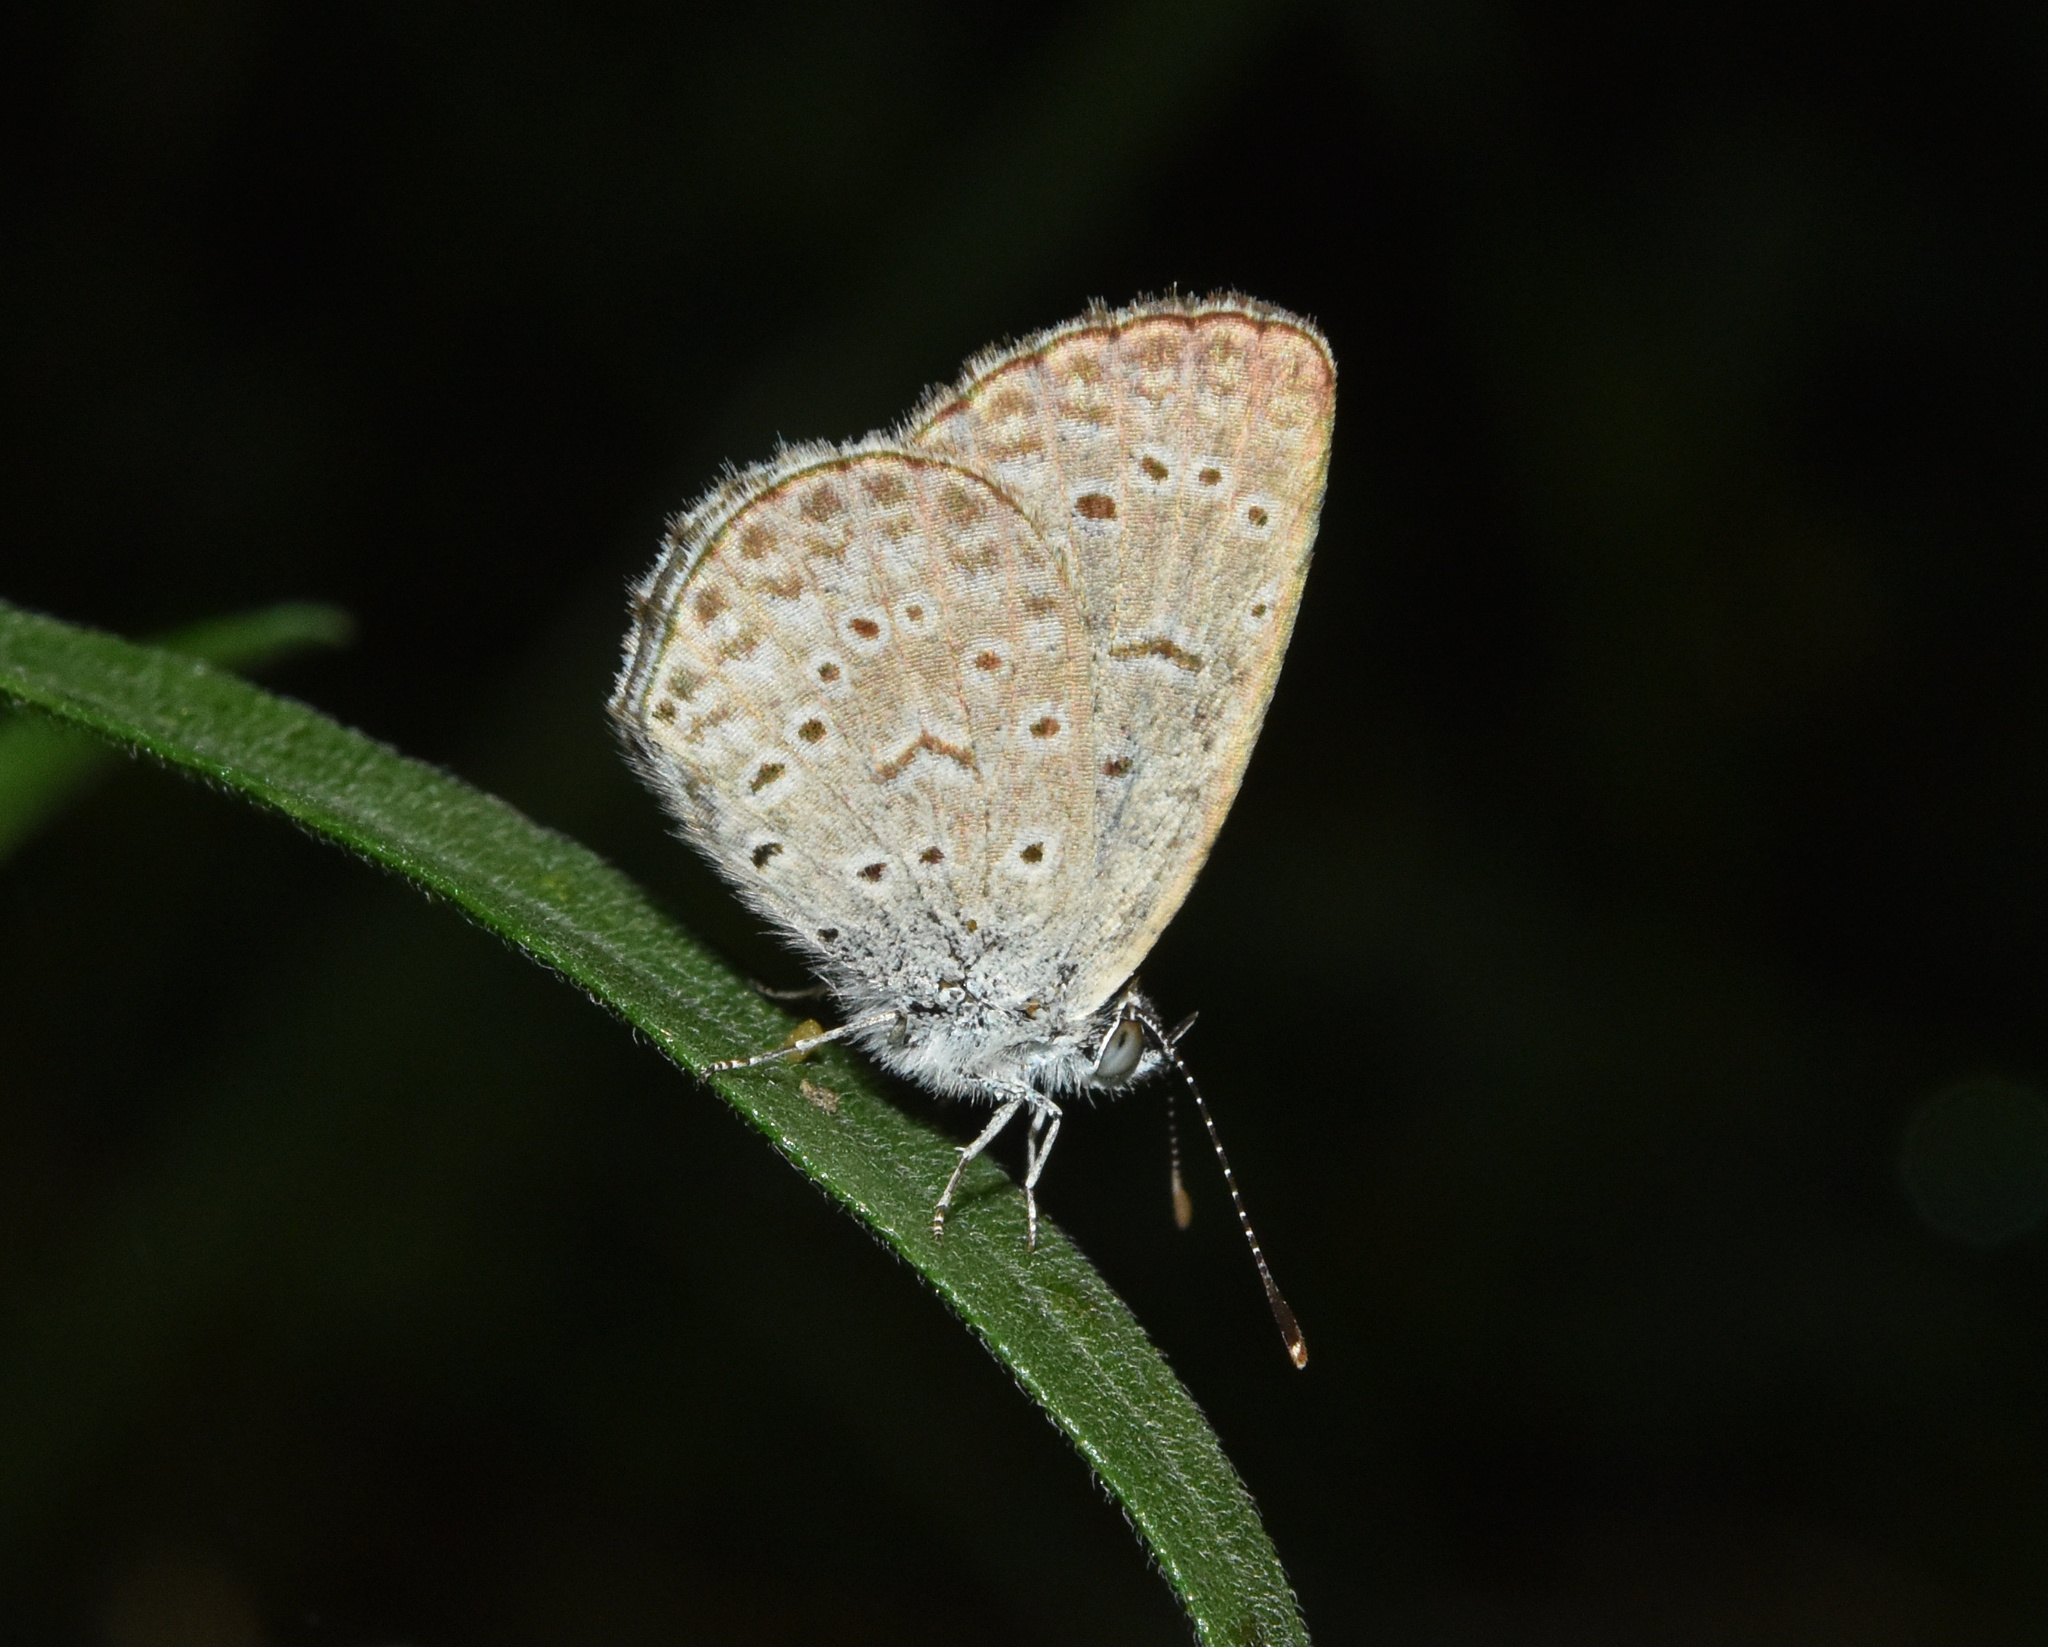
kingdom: Animalia
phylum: Arthropoda
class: Insecta
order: Lepidoptera
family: Lycaenidae
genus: Zizeeria
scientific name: Zizeeria knysna
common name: African grass blue
